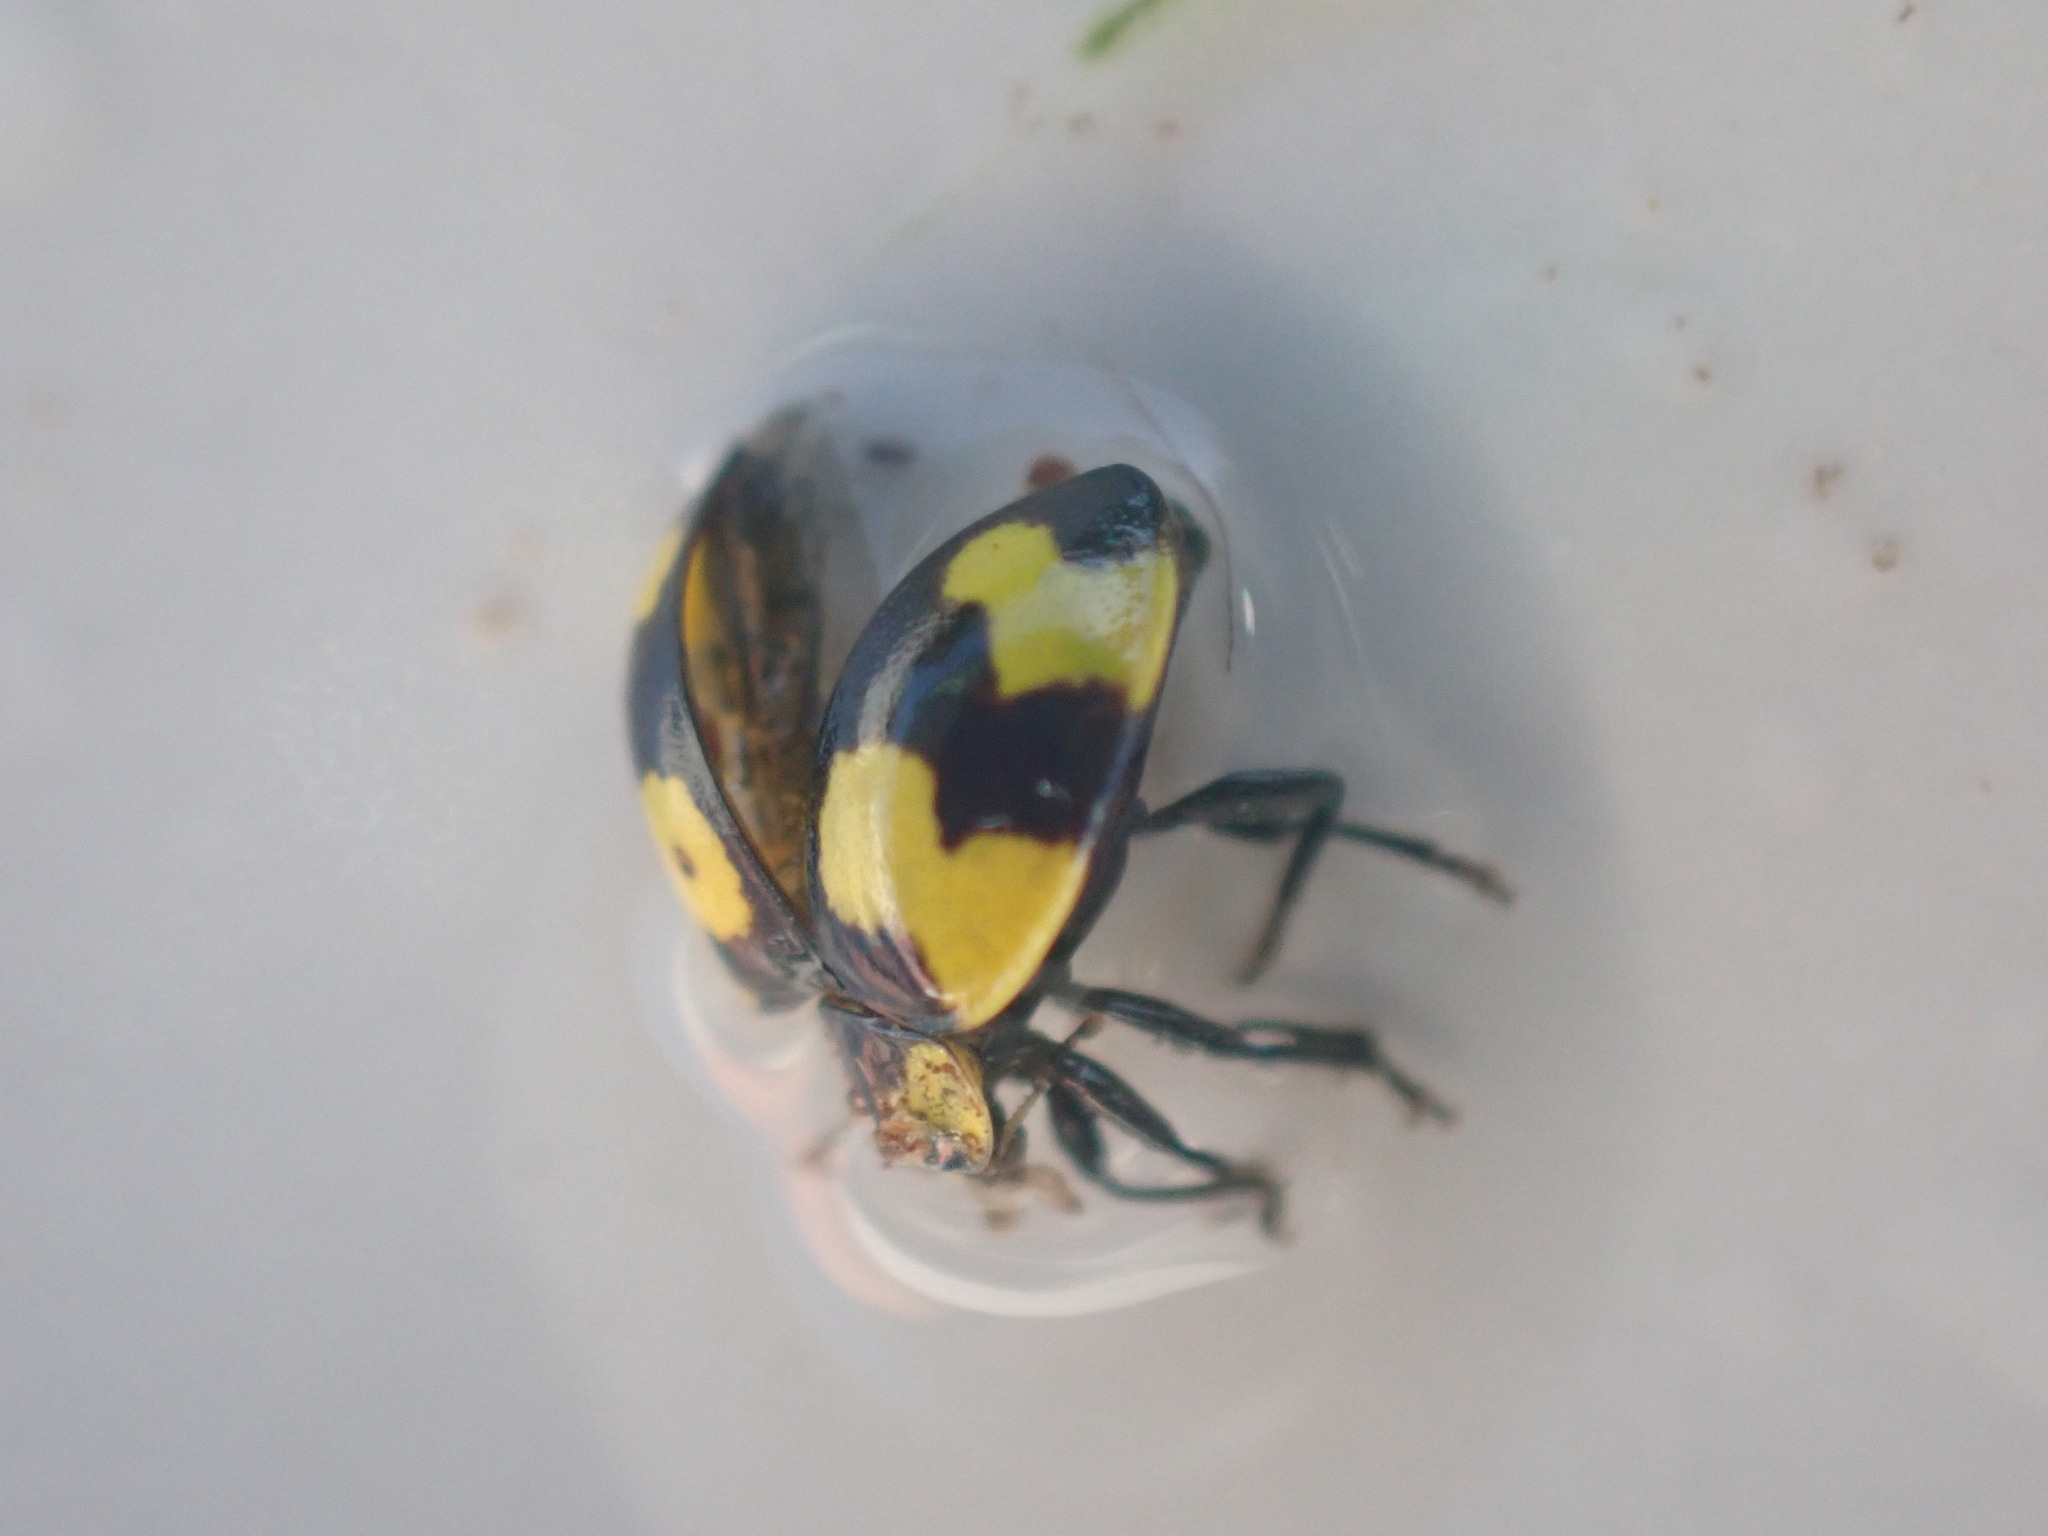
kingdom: Animalia
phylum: Arthropoda
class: Insecta
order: Coleoptera
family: Coccinellidae
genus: Illeis
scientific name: Illeis galbula
